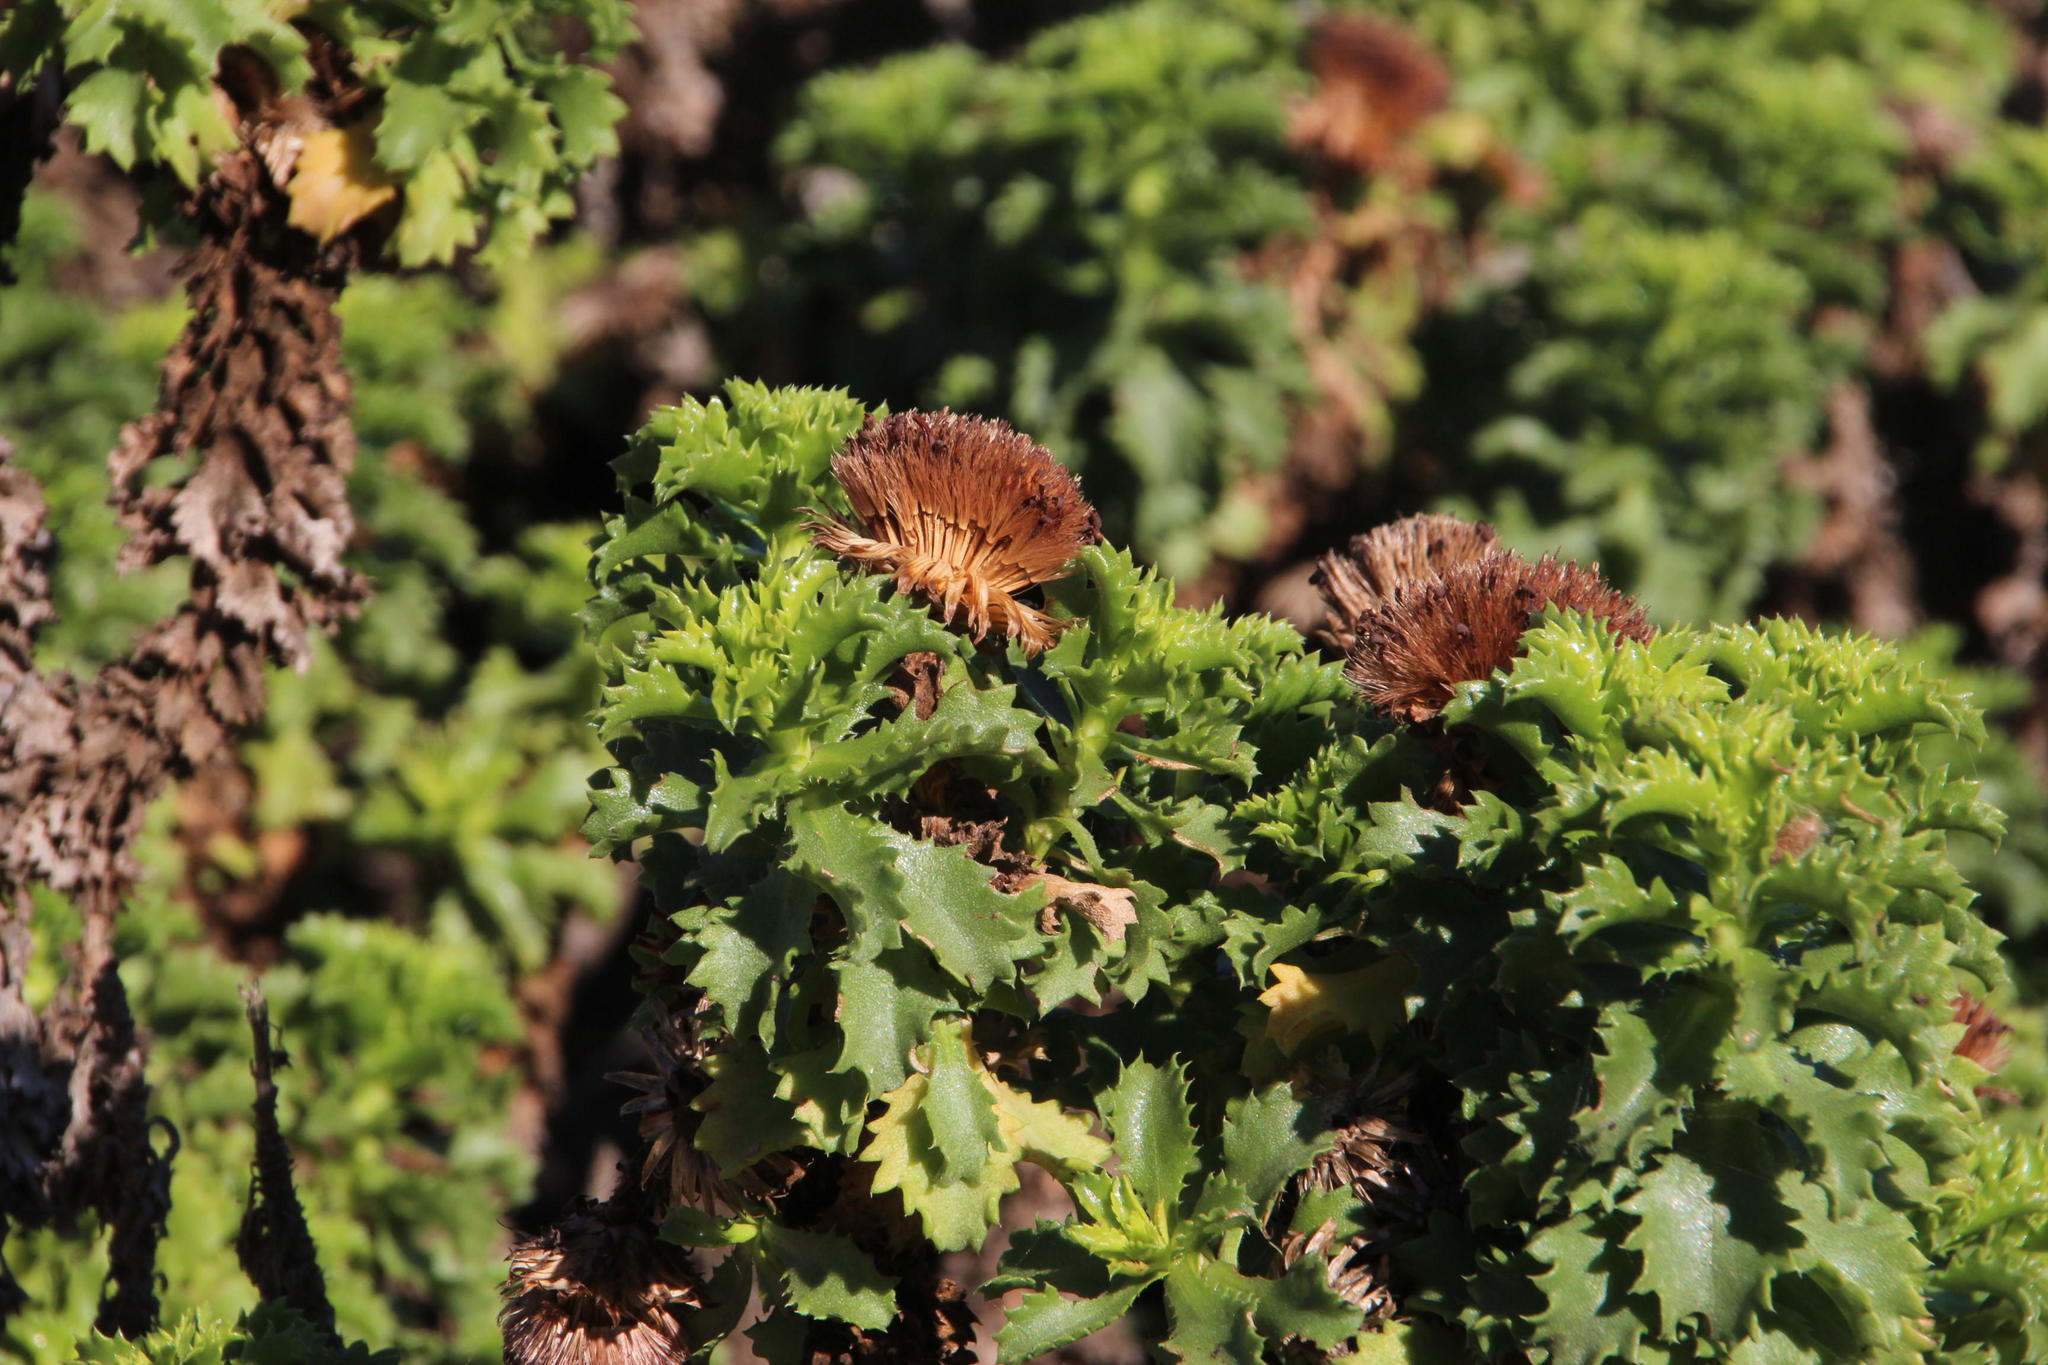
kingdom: Plantae
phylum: Tracheophyta
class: Magnoliopsida
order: Asterales
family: Asteraceae
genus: Haplopappus
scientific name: Haplopappus foliosus
